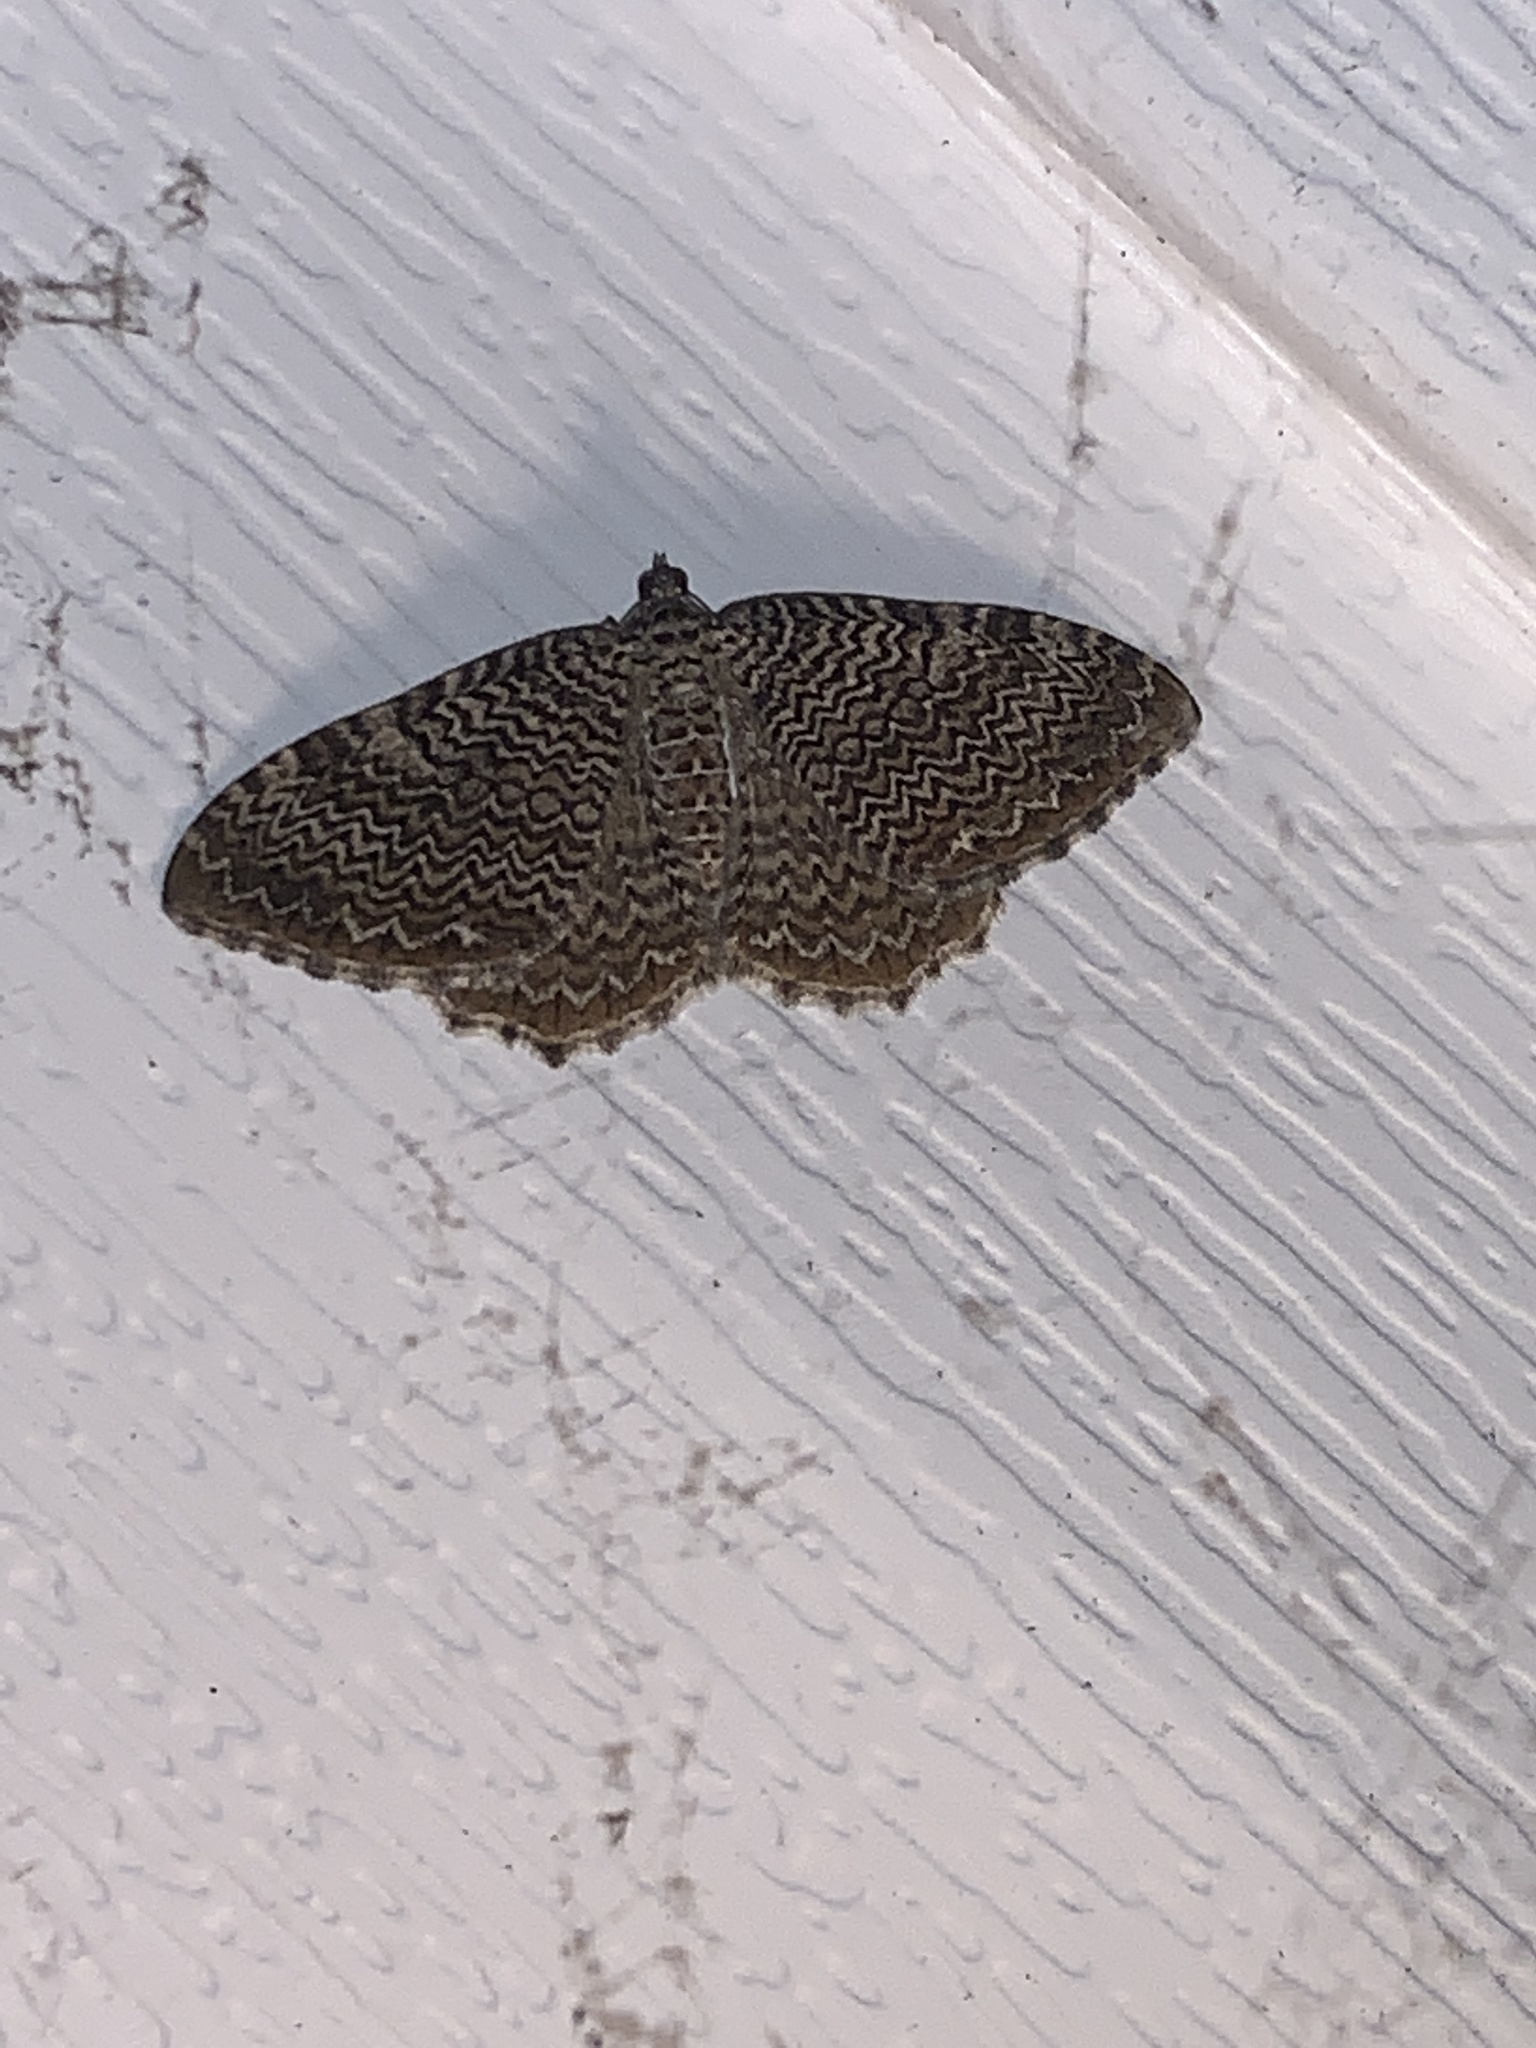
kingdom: Animalia
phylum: Arthropoda
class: Insecta
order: Lepidoptera
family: Geometridae
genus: Rheumaptera
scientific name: Rheumaptera undulata
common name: Scallop shell
